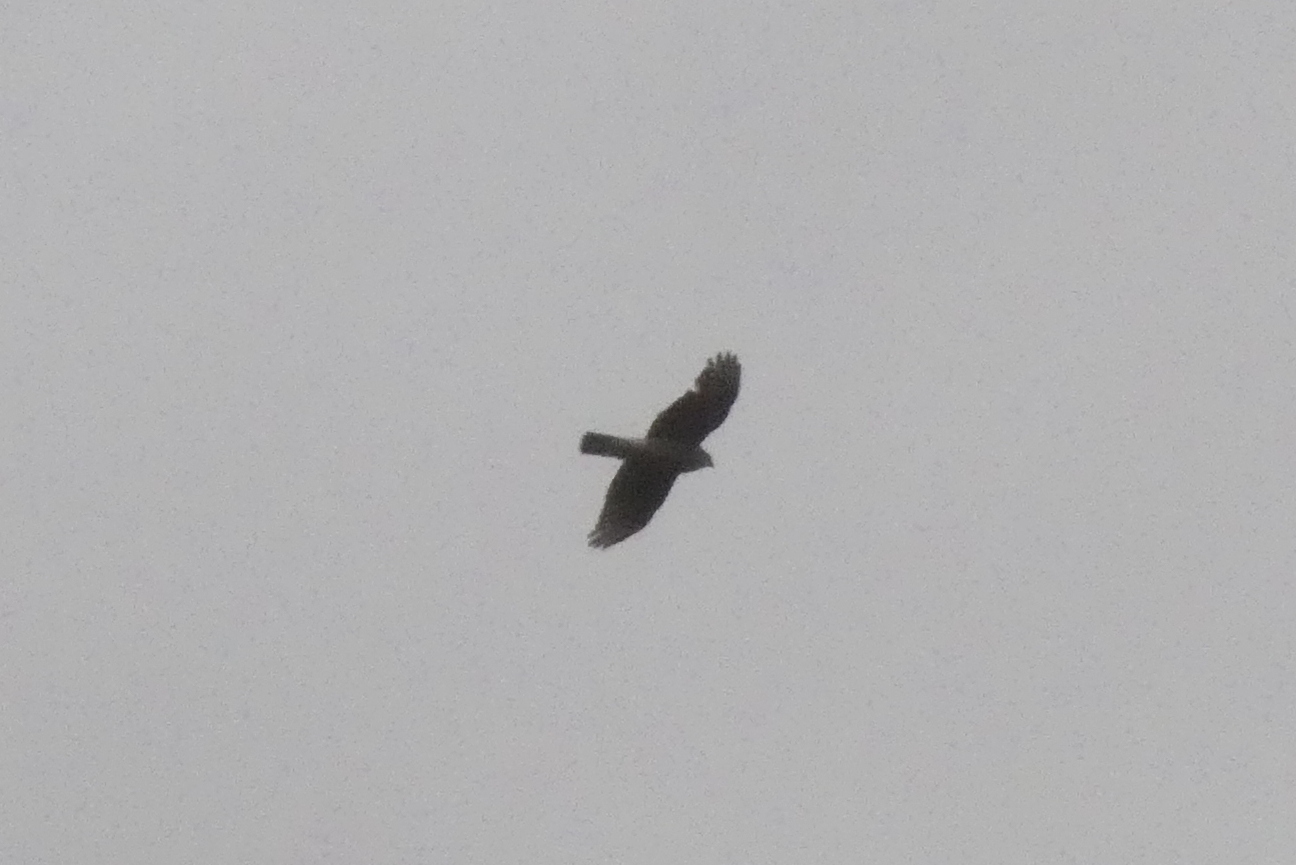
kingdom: Animalia
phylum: Chordata
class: Aves
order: Accipitriformes
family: Accipitridae
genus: Accipiter
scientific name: Accipiter nisus
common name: Eurasian sparrowhawk
